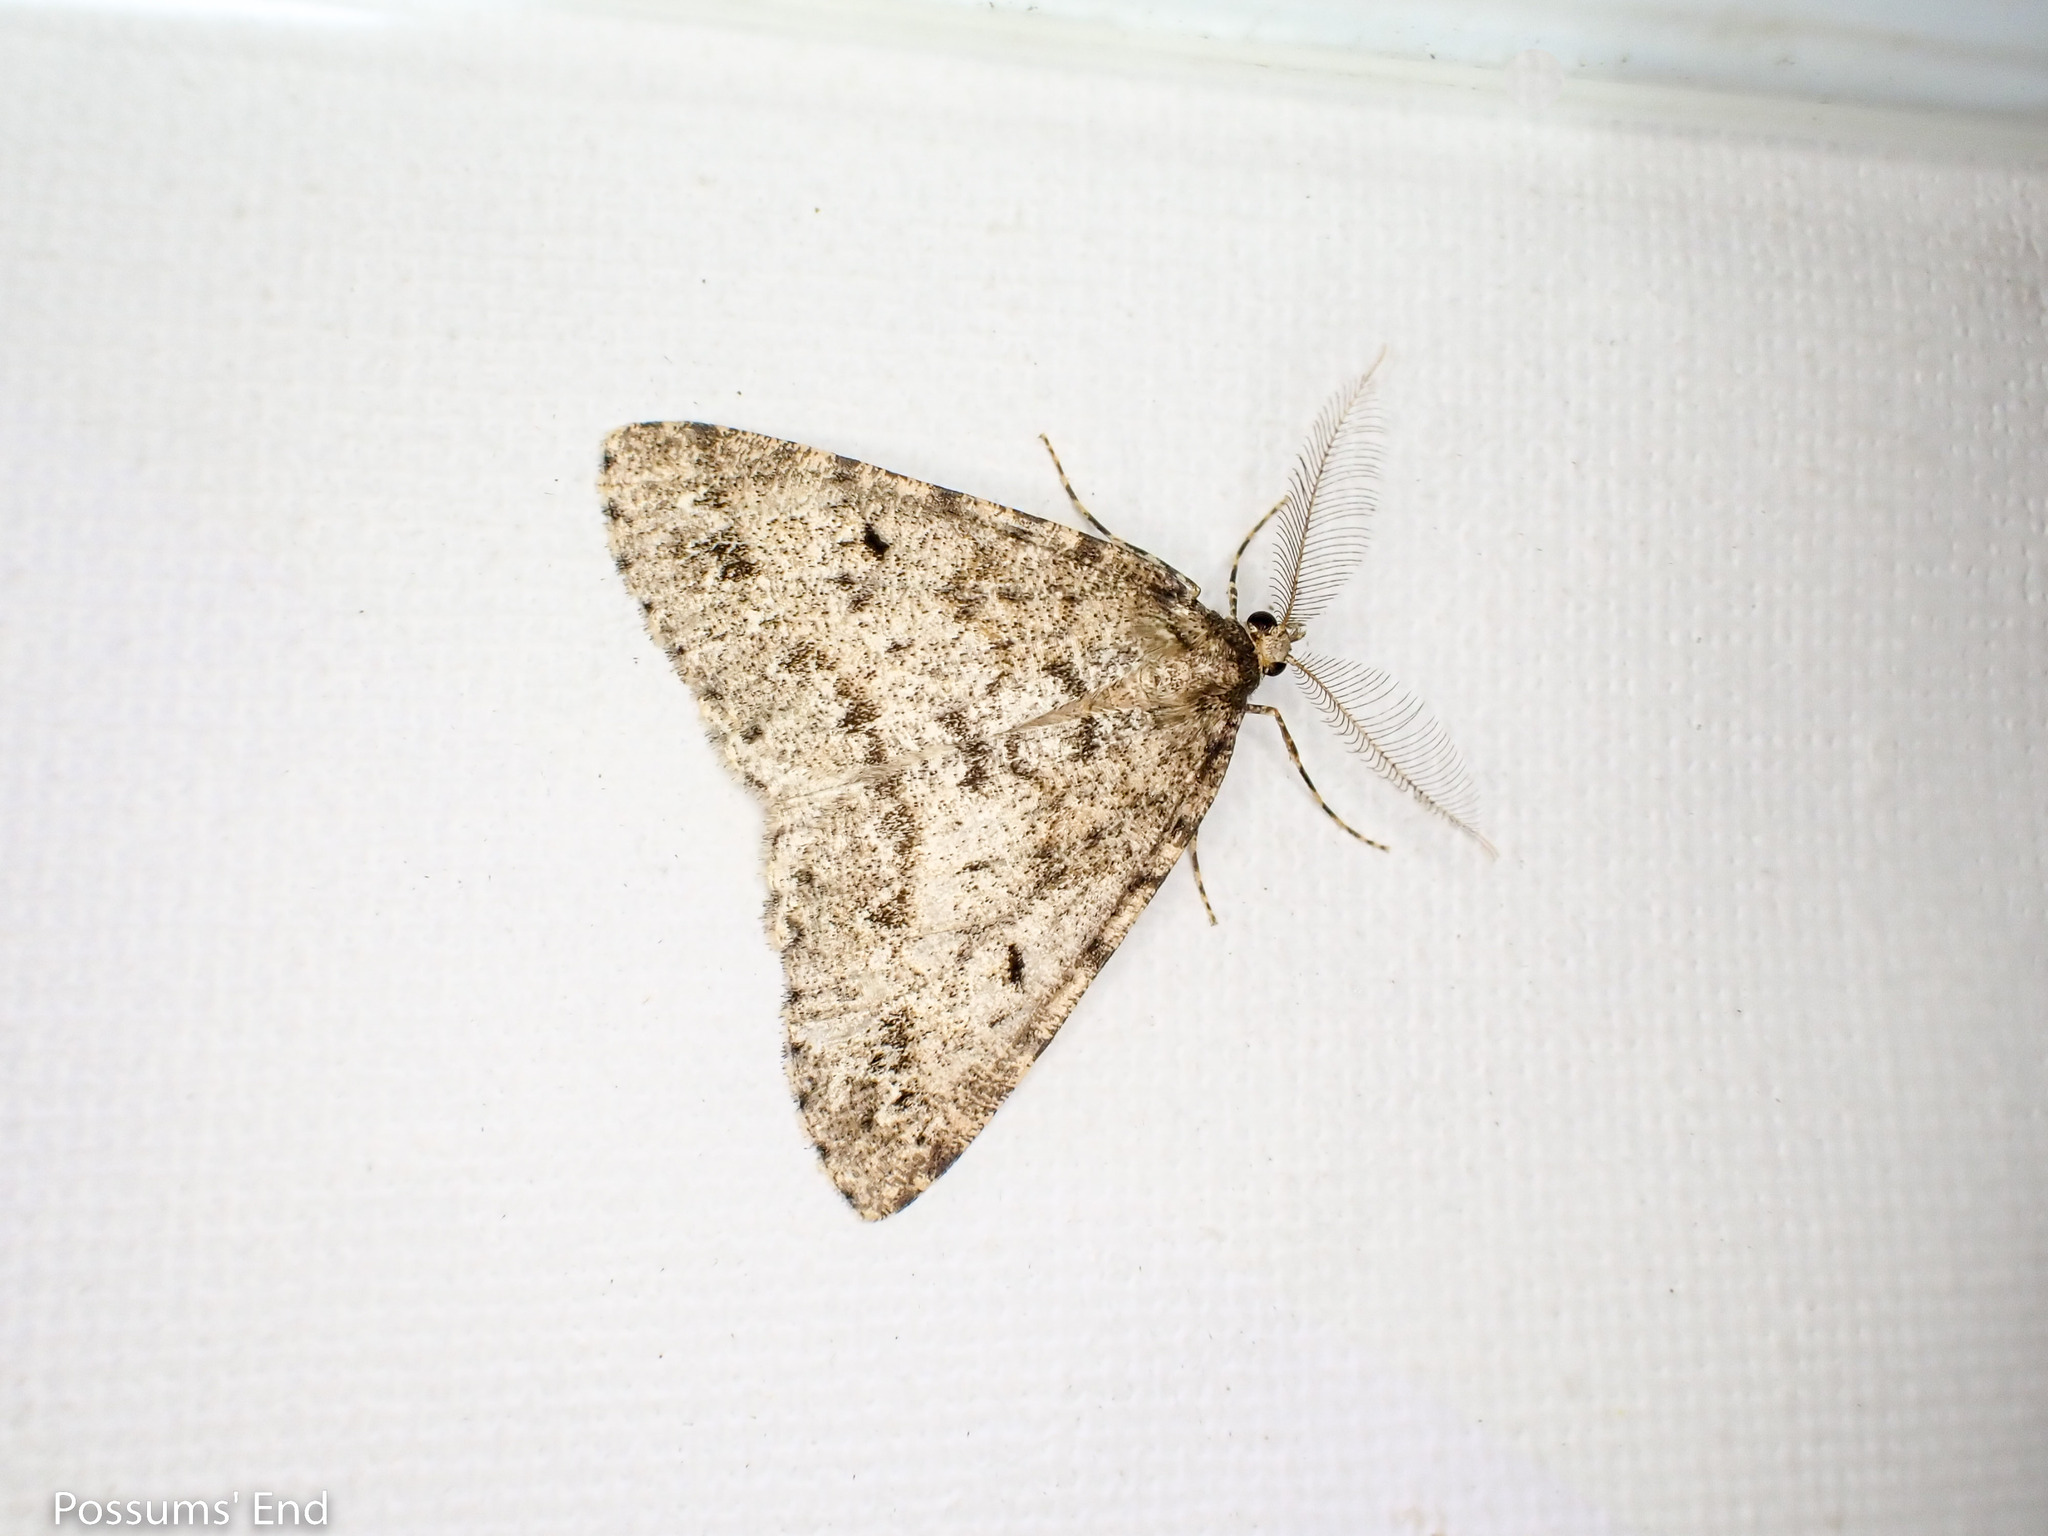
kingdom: Animalia
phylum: Arthropoda
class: Insecta
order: Lepidoptera
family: Geometridae
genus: Pseudocoremia
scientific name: Pseudocoremia terrena
